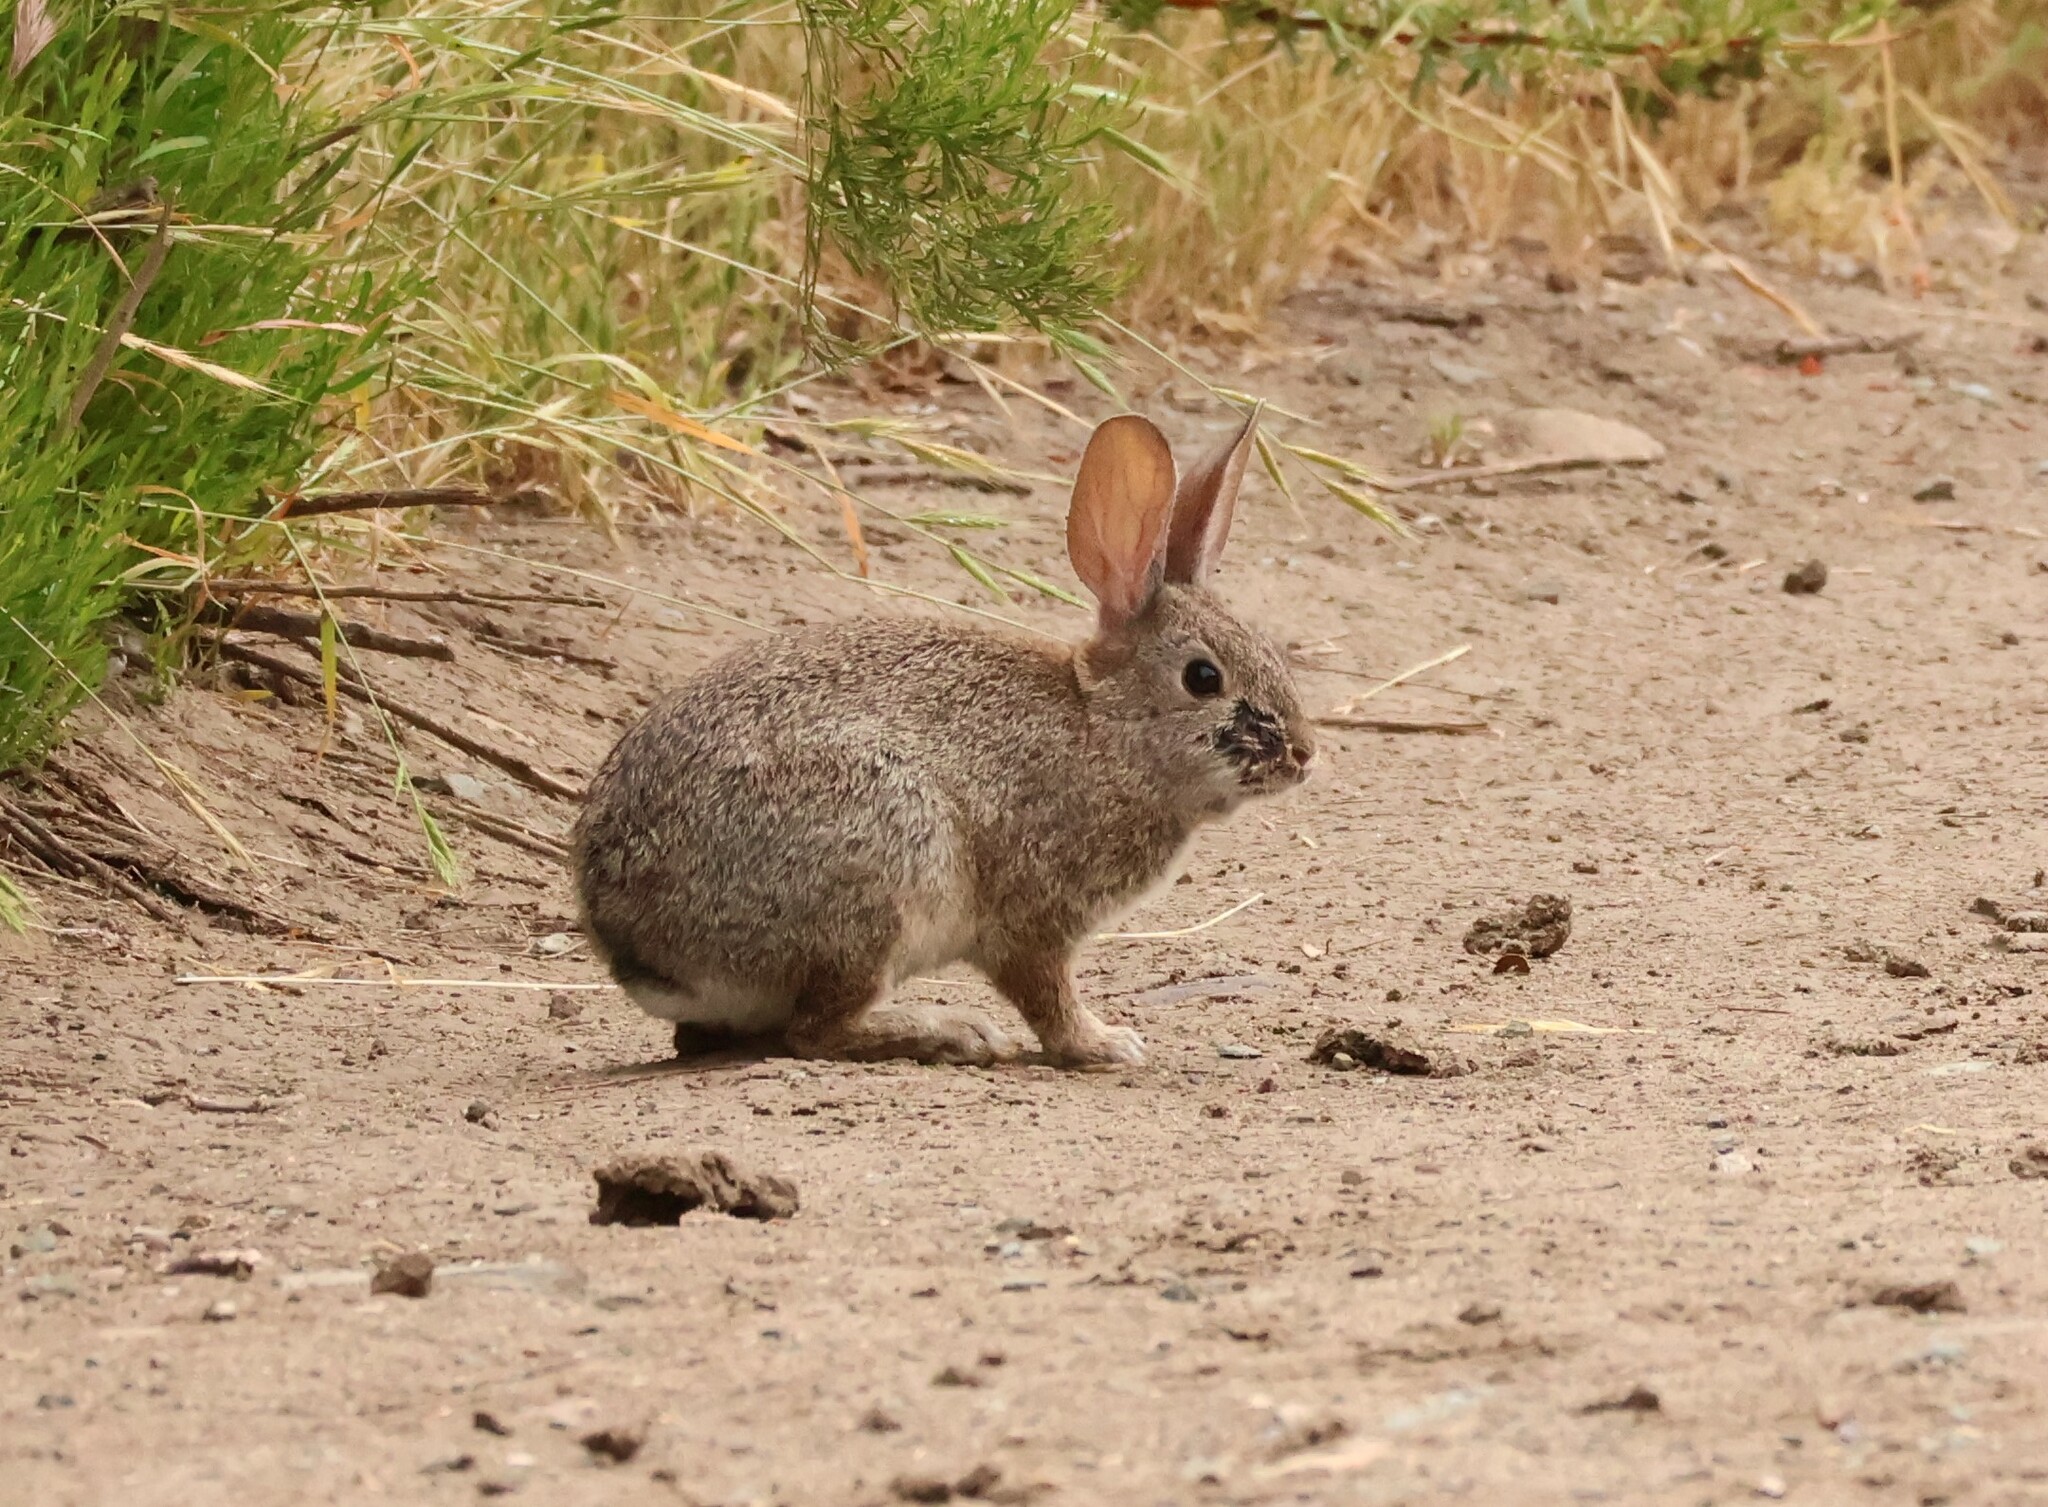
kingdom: Animalia
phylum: Chordata
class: Mammalia
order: Lagomorpha
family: Leporidae
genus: Sylvilagus
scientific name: Sylvilagus bachmani
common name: Brush rabbit
